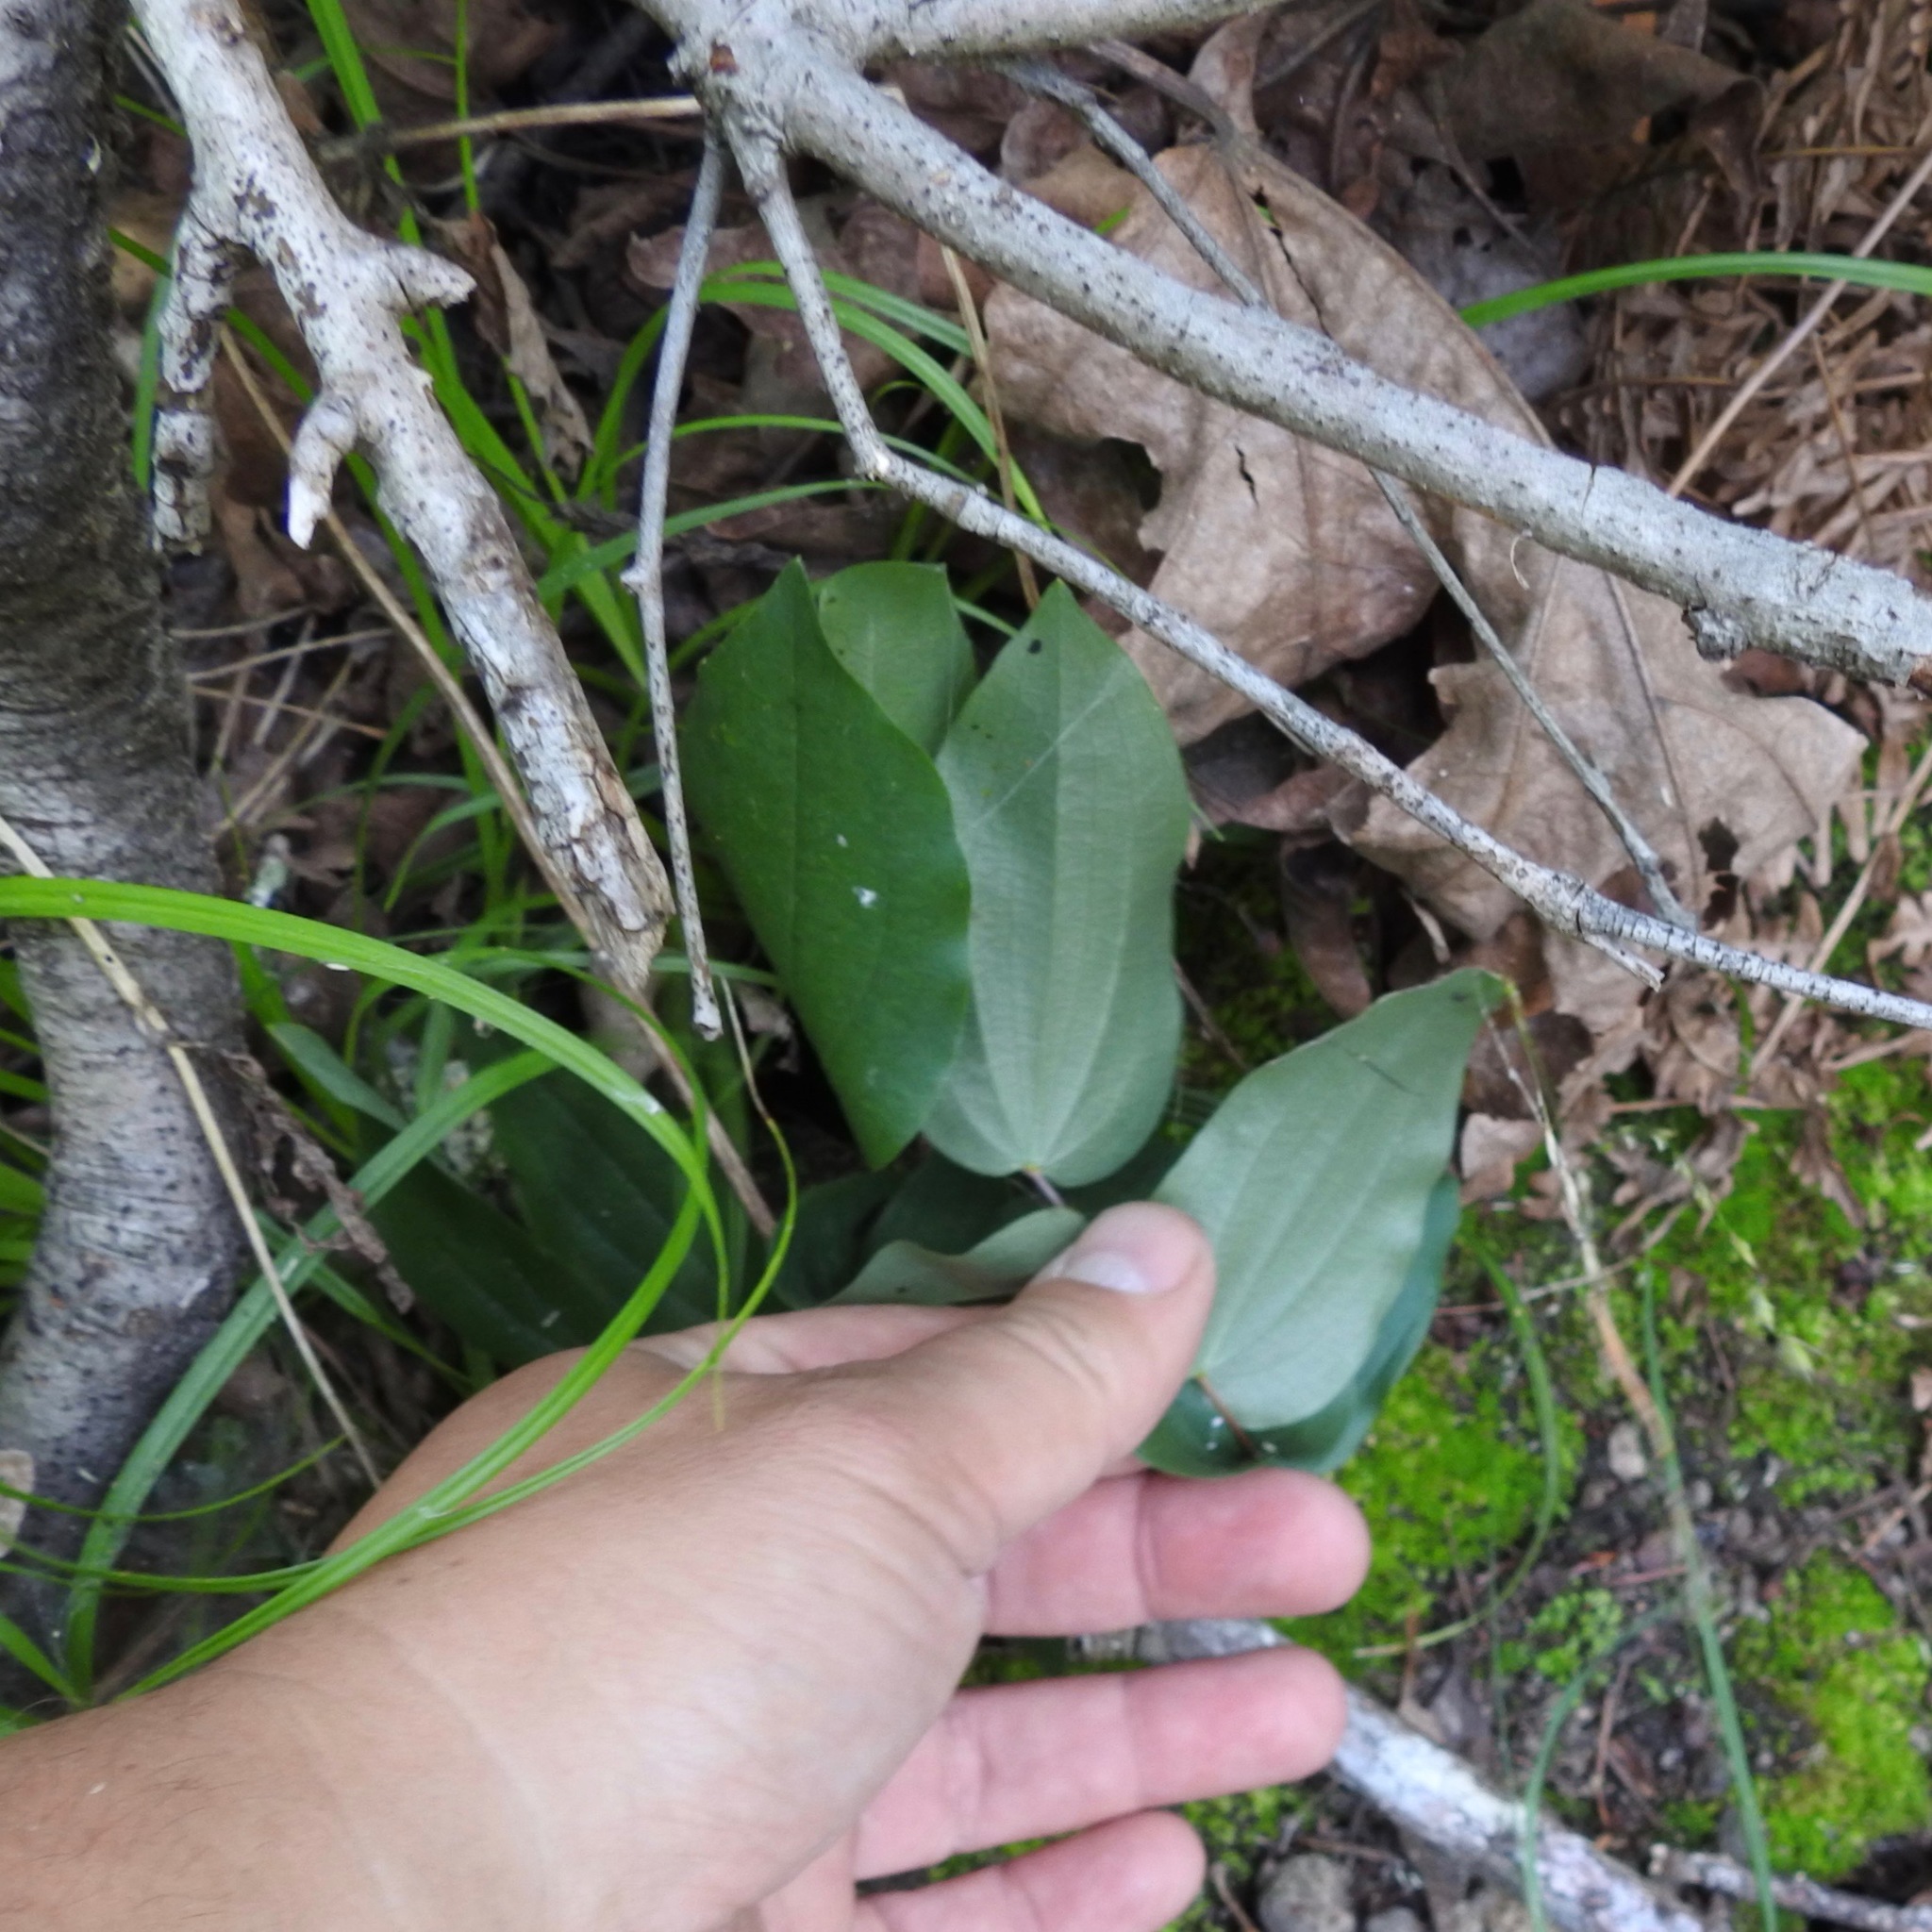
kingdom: Plantae
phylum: Tracheophyta
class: Liliopsida
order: Liliales
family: Liliaceae
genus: Prosartes
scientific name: Prosartes hookeri
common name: Fairy-bells
